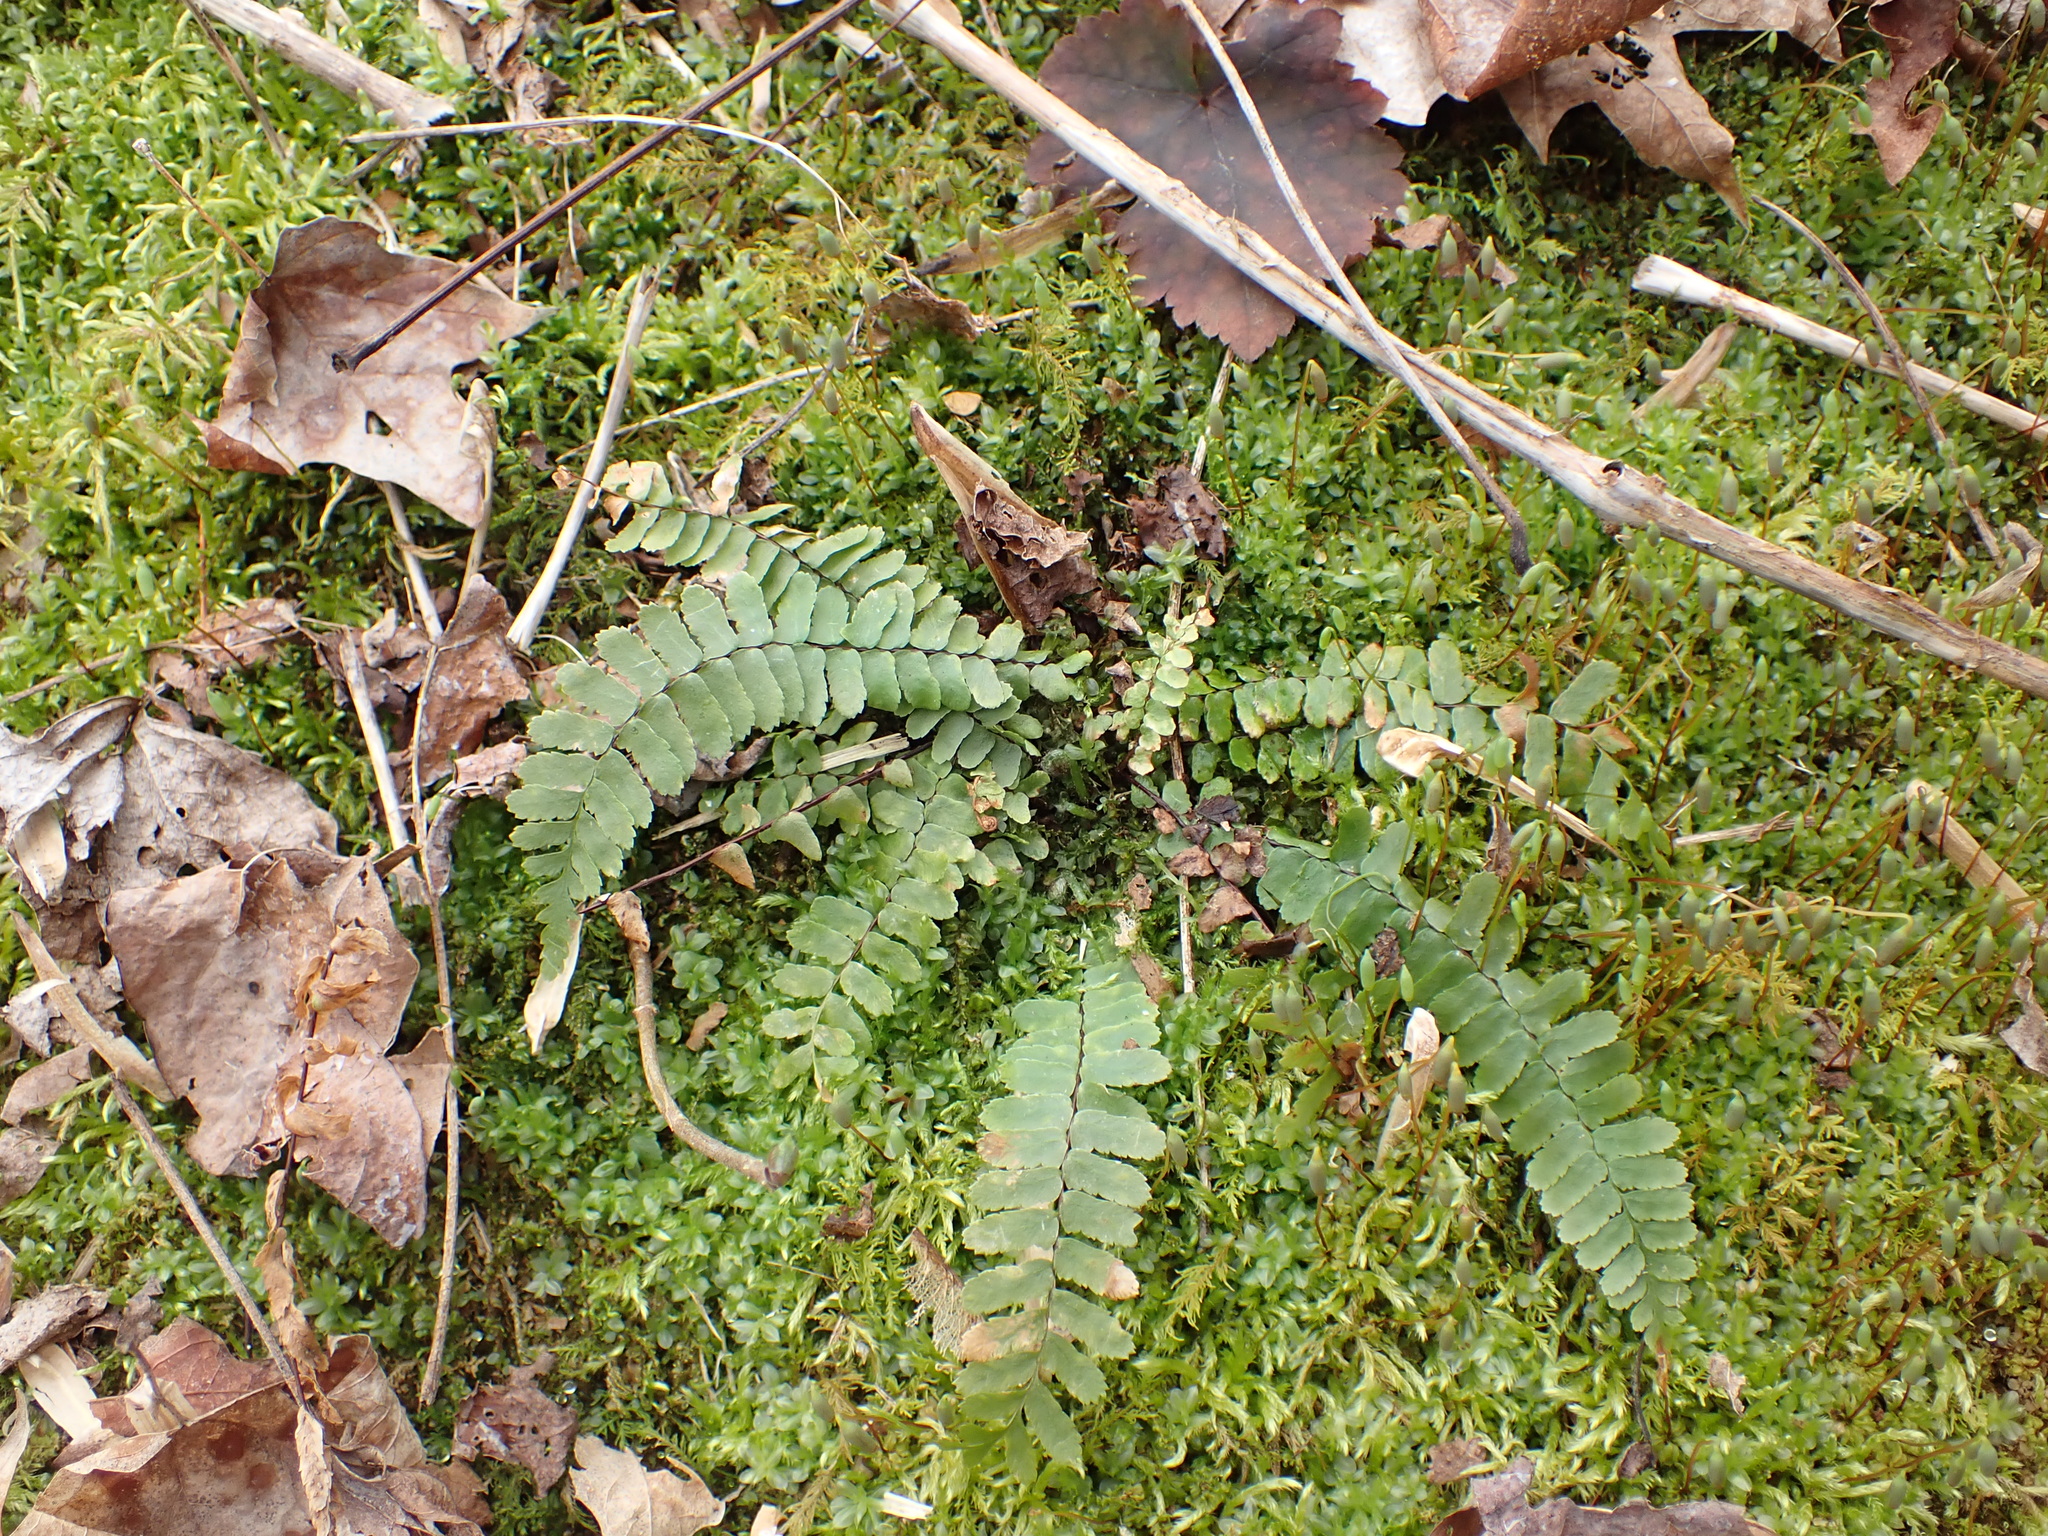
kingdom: Plantae
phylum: Tracheophyta
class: Polypodiopsida
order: Polypodiales
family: Aspleniaceae
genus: Asplenium
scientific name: Asplenium platyneuron
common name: Ebony spleenwort
